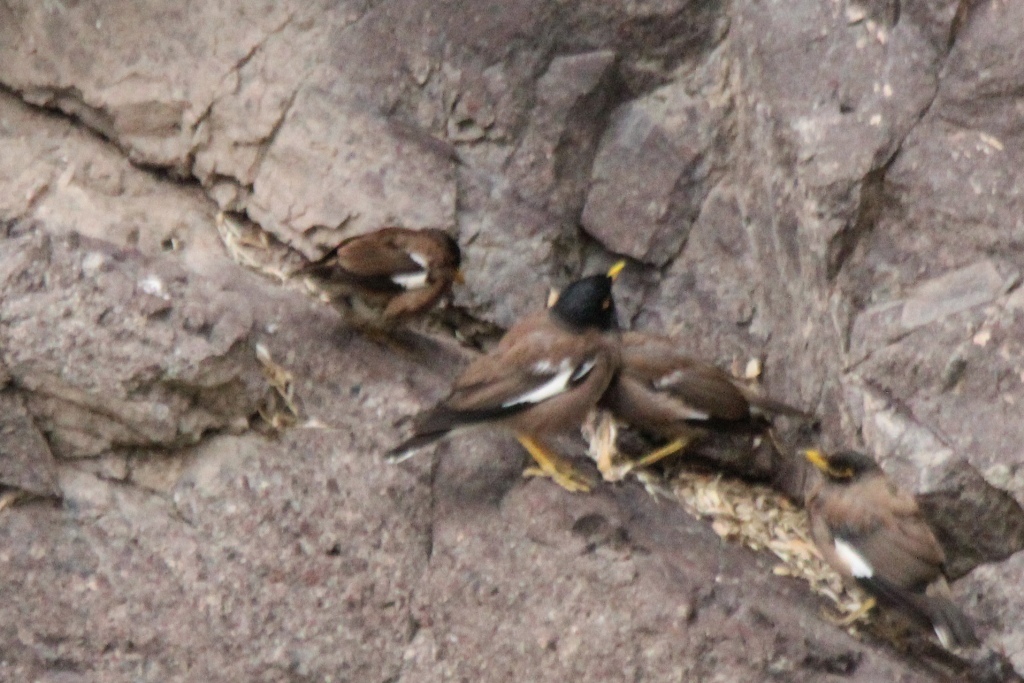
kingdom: Animalia
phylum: Chordata
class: Aves
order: Passeriformes
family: Sturnidae
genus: Acridotheres
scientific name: Acridotheres tristis
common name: Common myna
